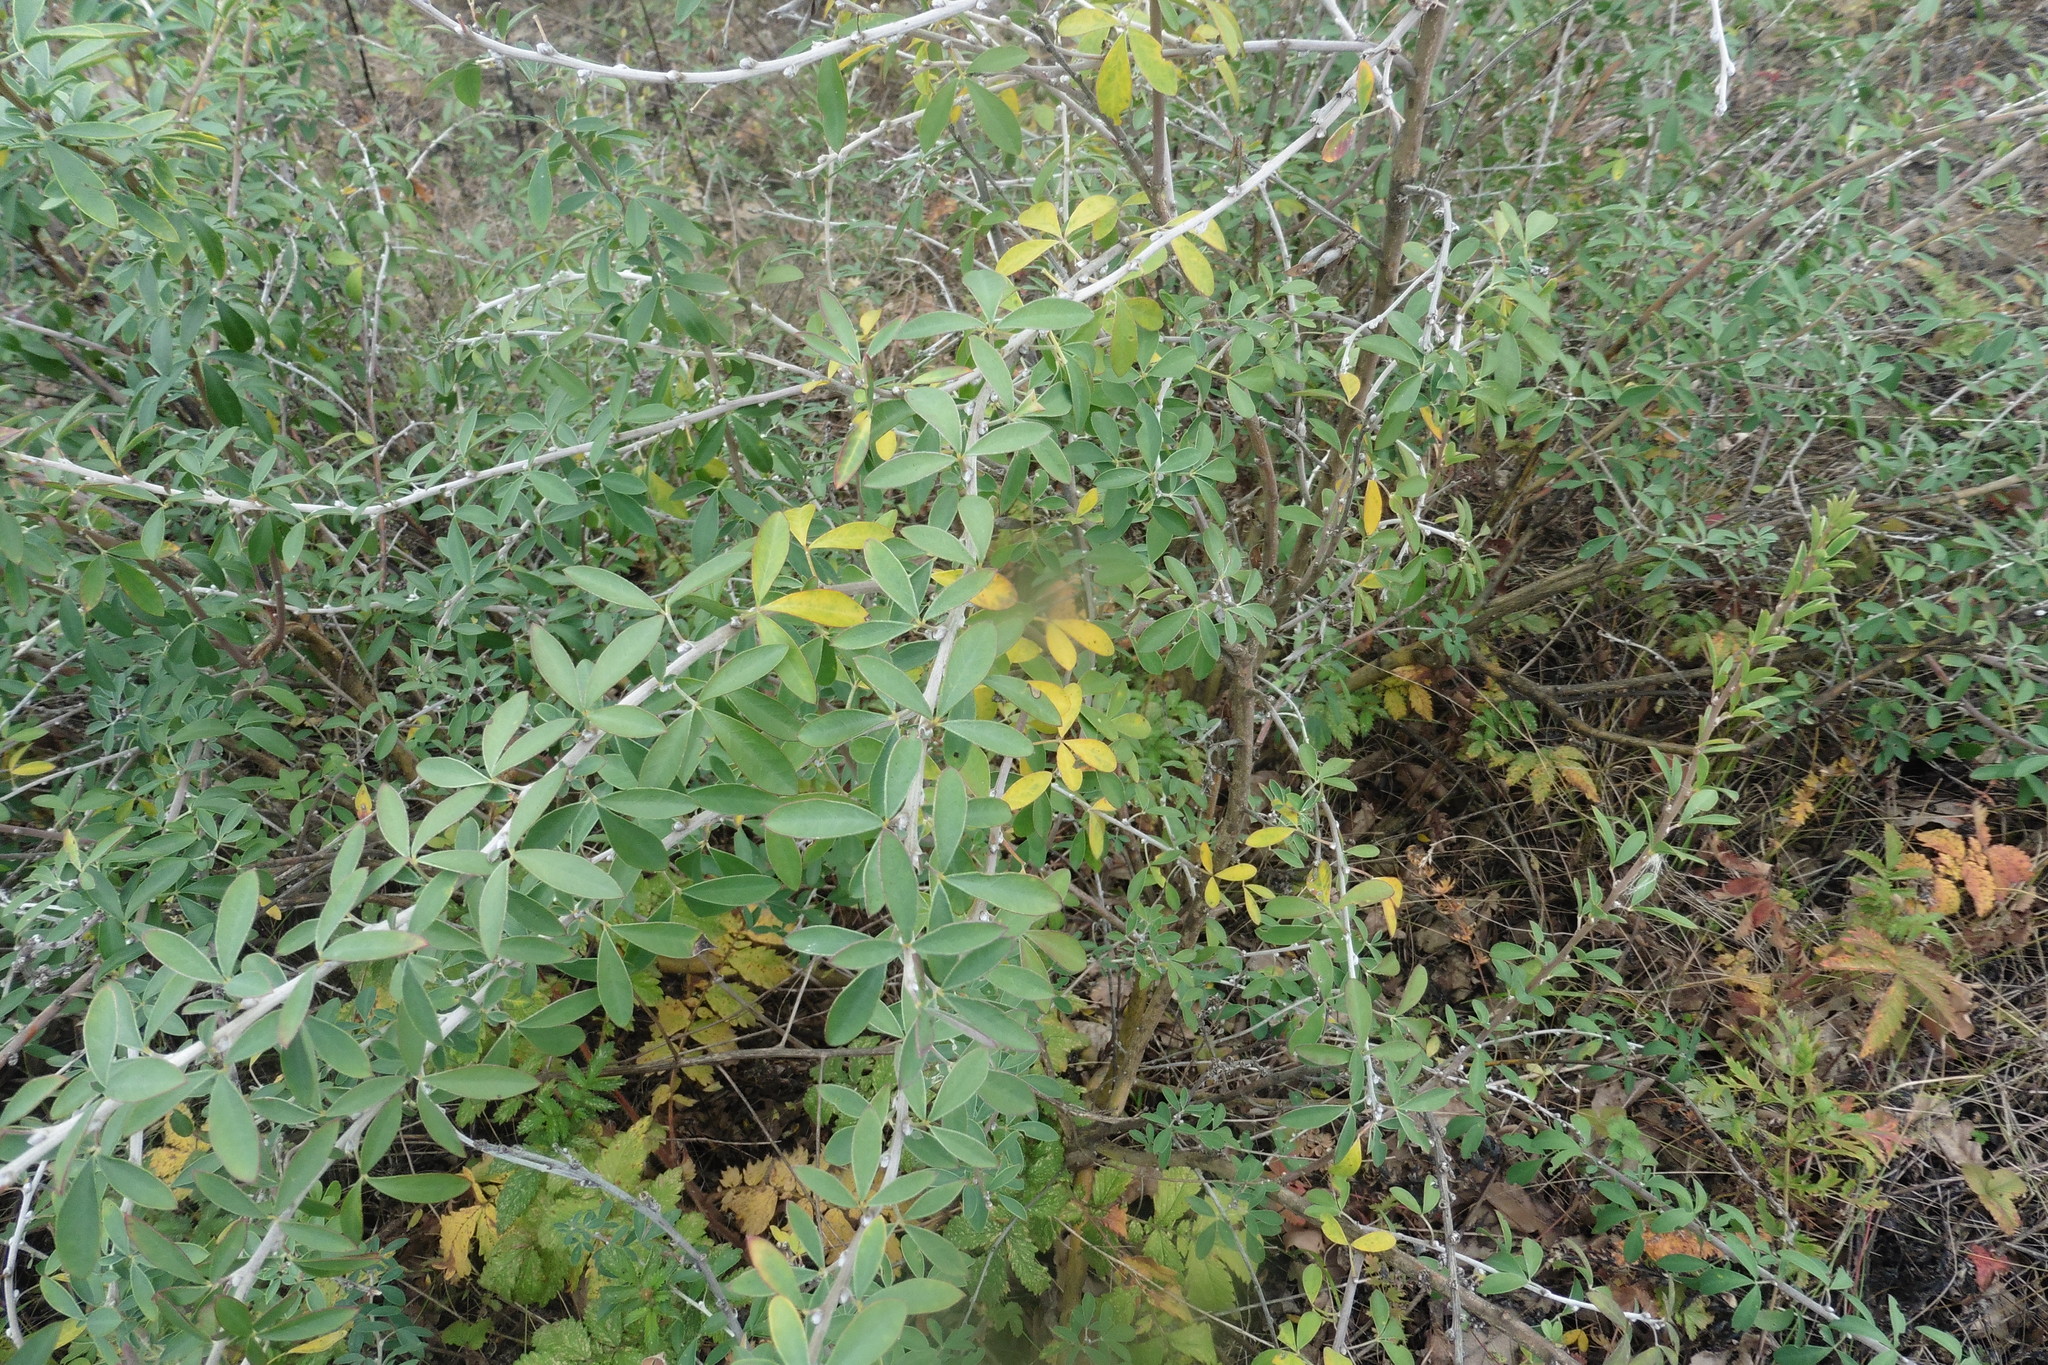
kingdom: Plantae
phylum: Tracheophyta
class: Magnoliopsida
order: Fabales
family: Fabaceae
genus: Chamaecytisus
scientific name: Chamaecytisus ruthenicus
